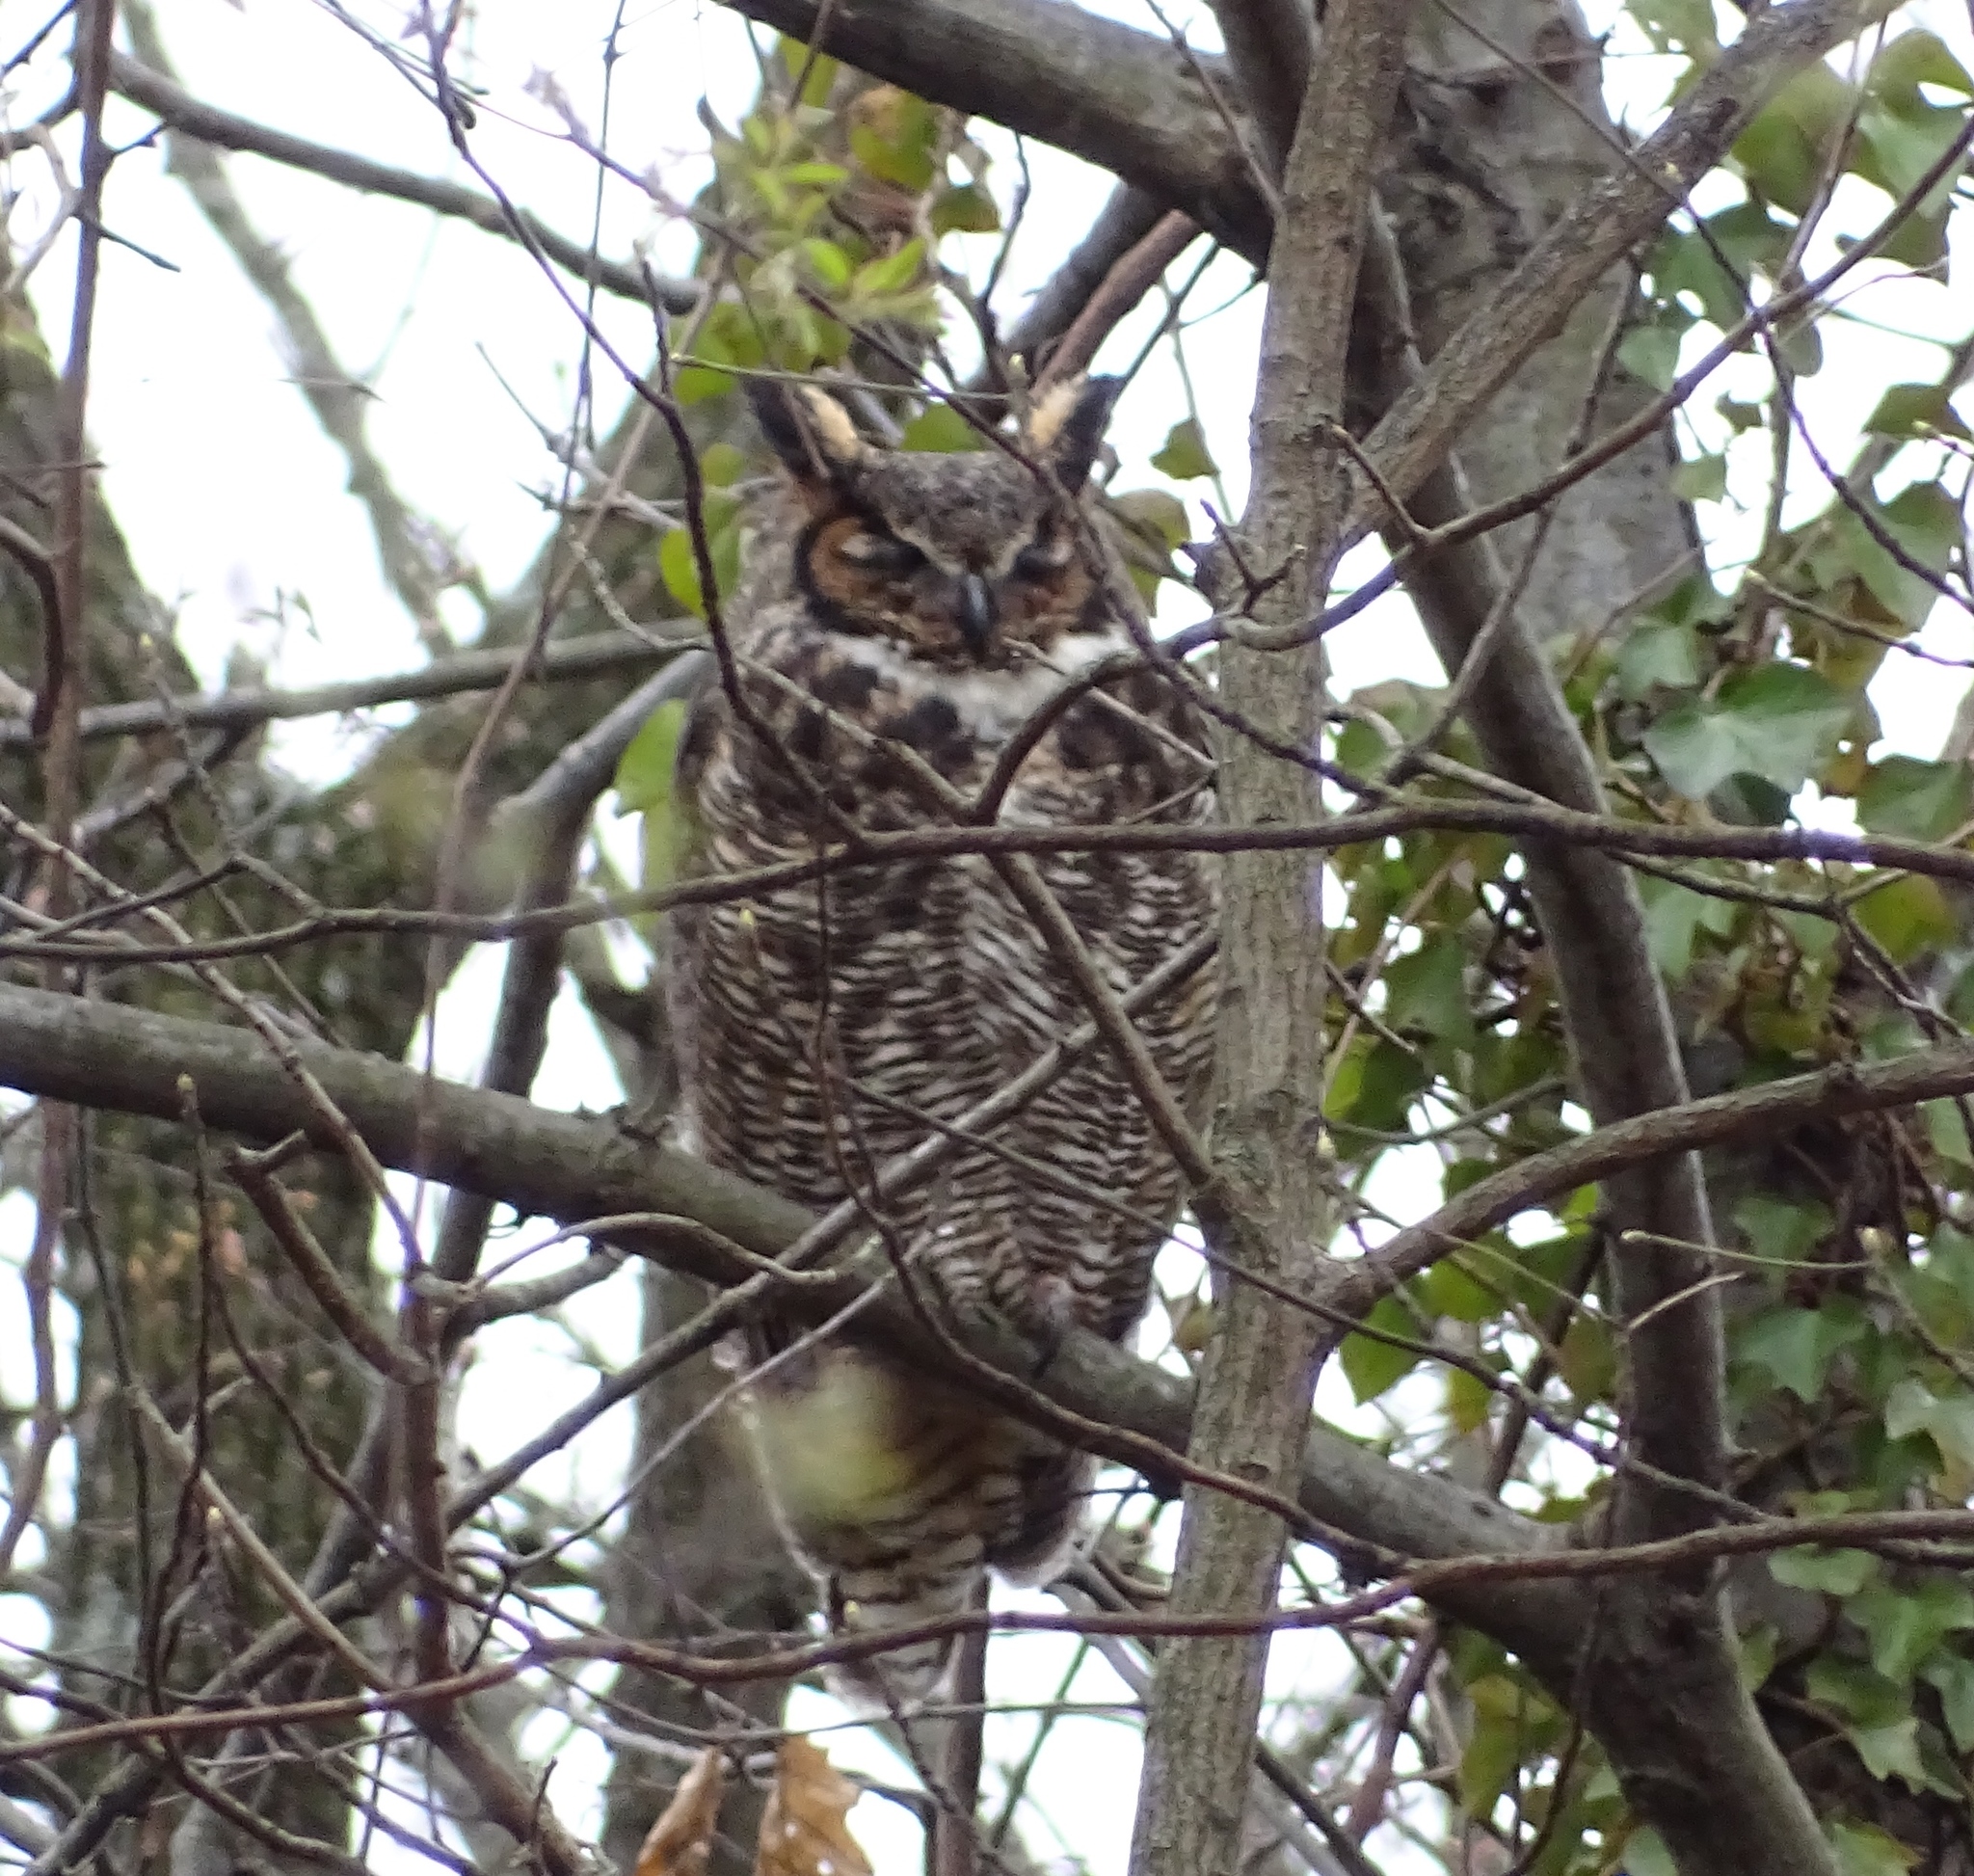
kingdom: Animalia
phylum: Chordata
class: Aves
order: Strigiformes
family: Strigidae
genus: Bubo
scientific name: Bubo virginianus
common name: Great horned owl
